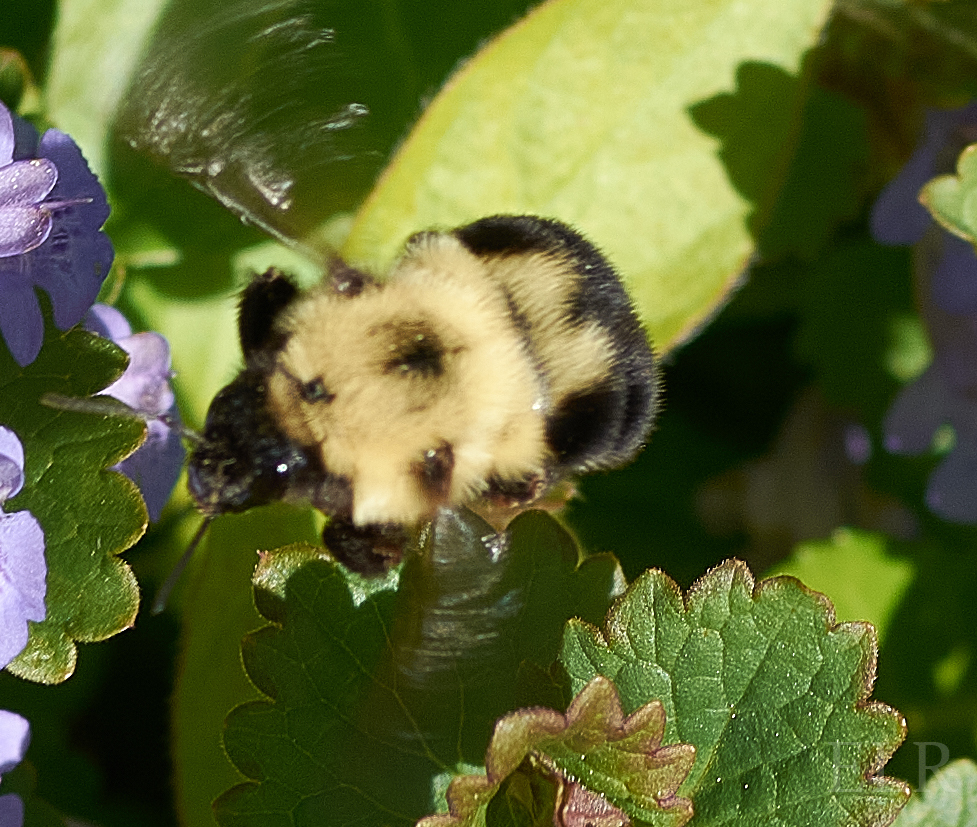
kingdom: Animalia
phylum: Arthropoda
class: Insecta
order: Hymenoptera
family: Apidae
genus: Bombus
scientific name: Bombus bimaculatus
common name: Two-spotted bumble bee
